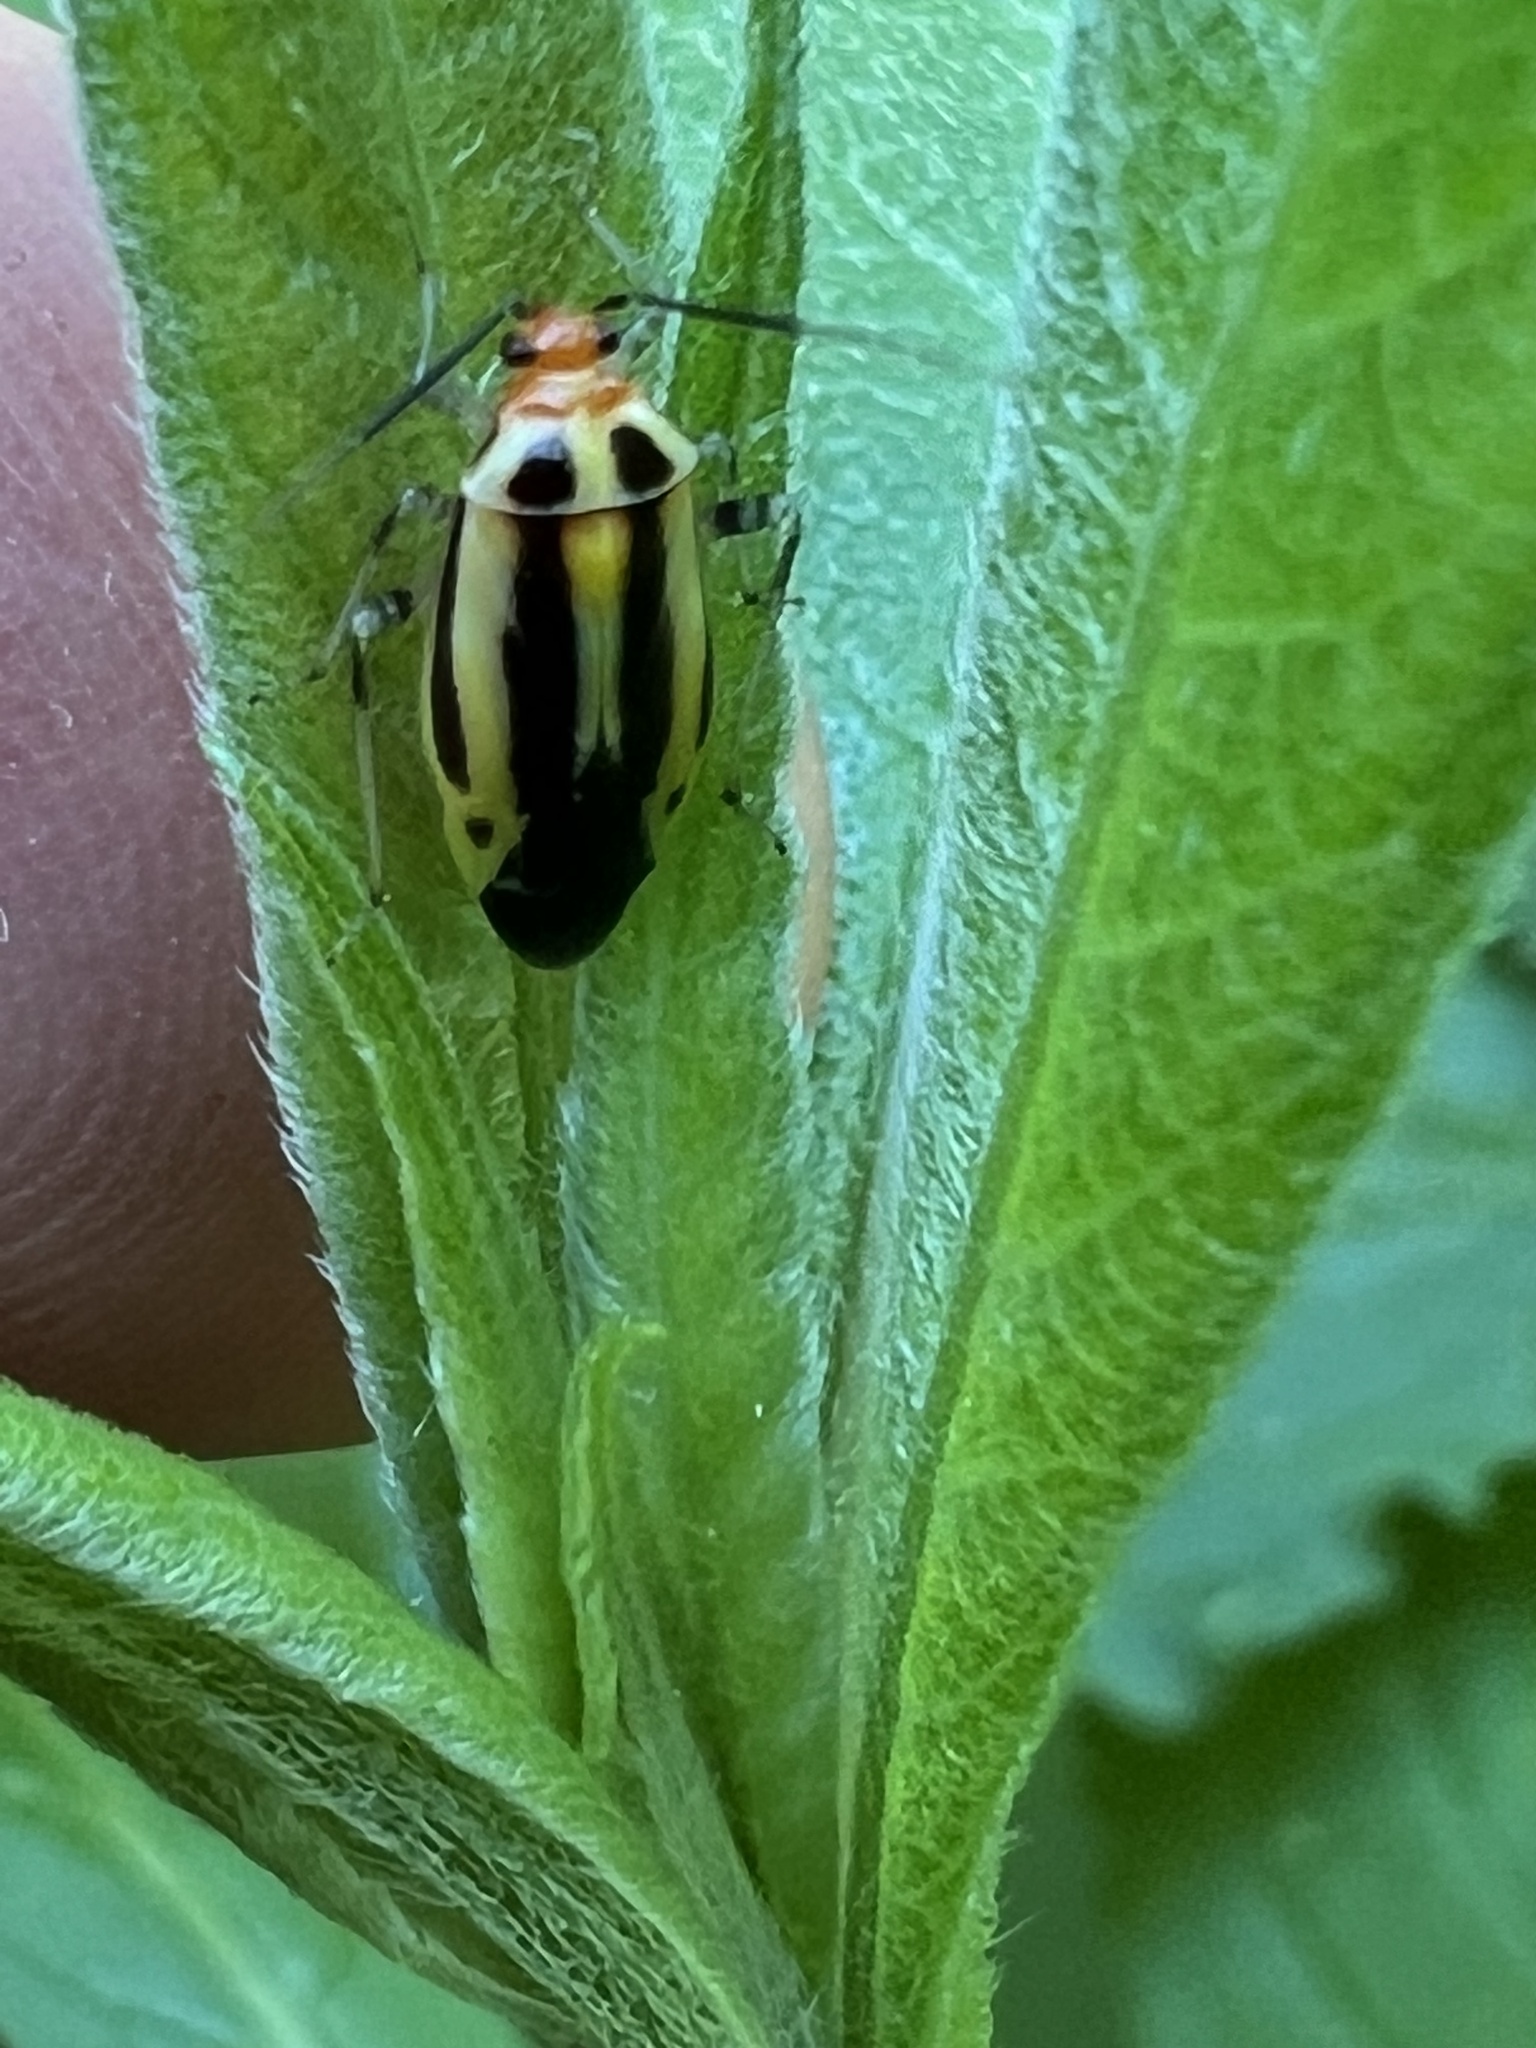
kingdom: Animalia
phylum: Arthropoda
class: Insecta
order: Hemiptera
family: Miridae
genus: Poecilocapsus
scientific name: Poecilocapsus lineatus
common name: Four-lined plant bug
